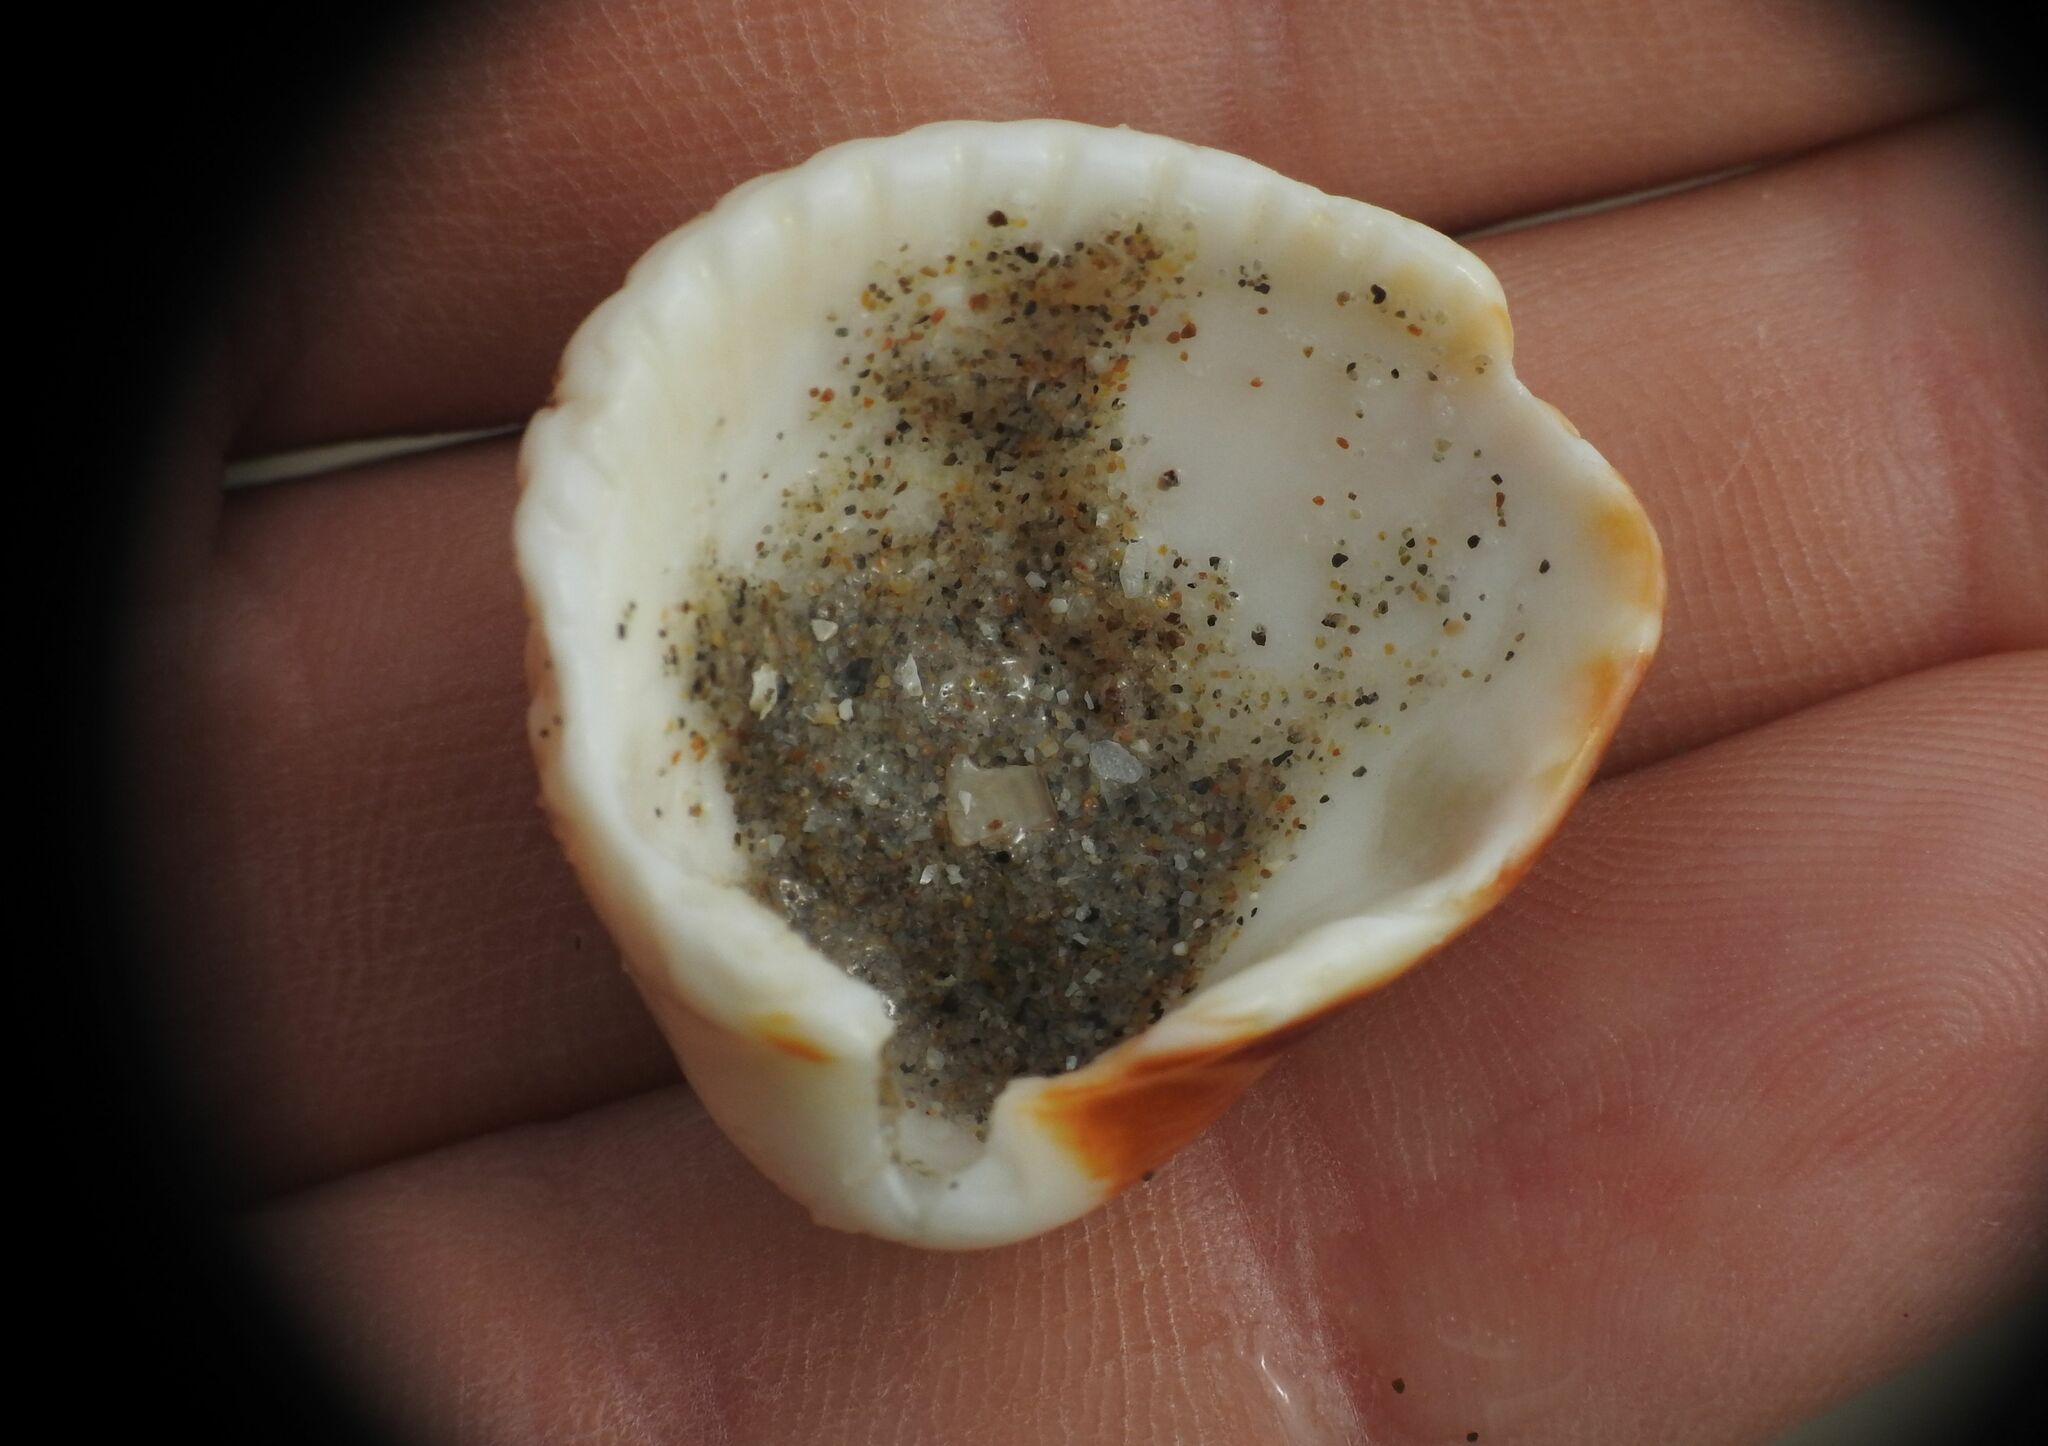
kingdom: Animalia
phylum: Mollusca
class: Bivalvia
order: Cardiida
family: Cardiidae
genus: Cerastoderma
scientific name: Cerastoderma glaucum
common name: Lagoon cockle
